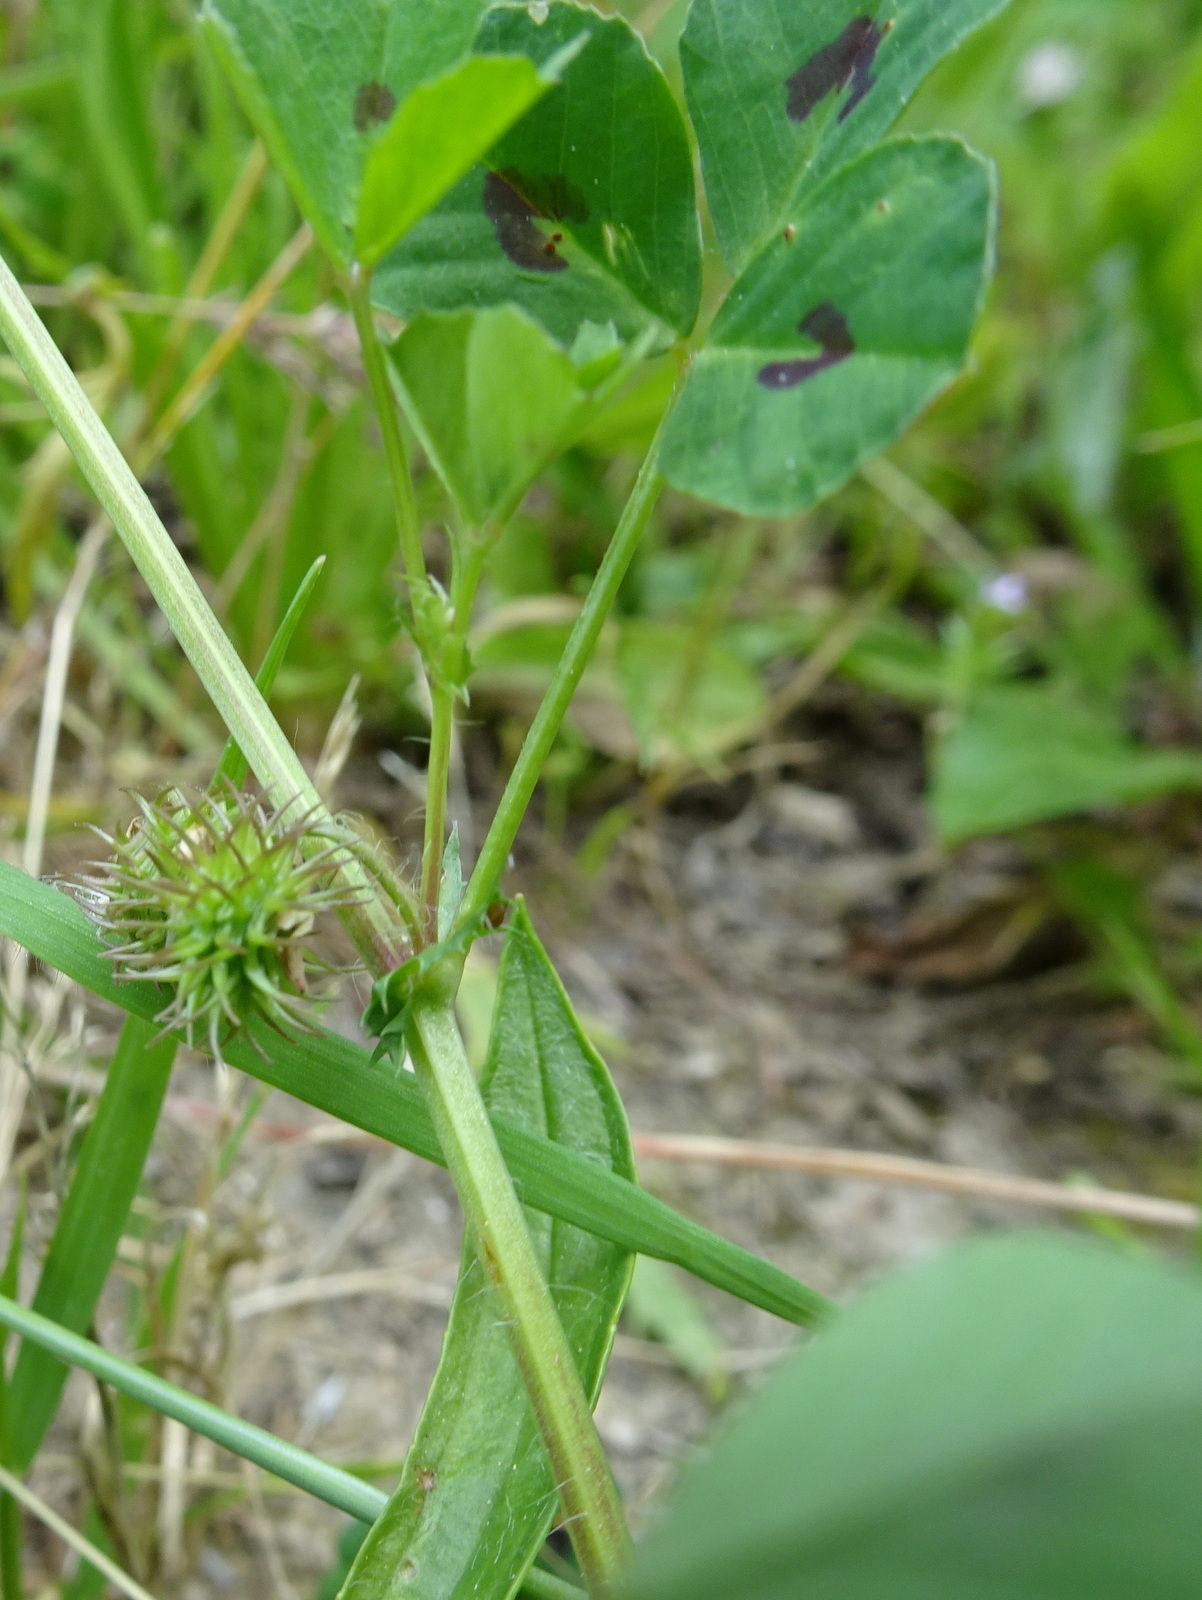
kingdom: Plantae
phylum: Tracheophyta
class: Magnoliopsida
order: Fabales
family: Fabaceae
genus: Medicago
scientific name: Medicago arabica
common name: Spotted medick
